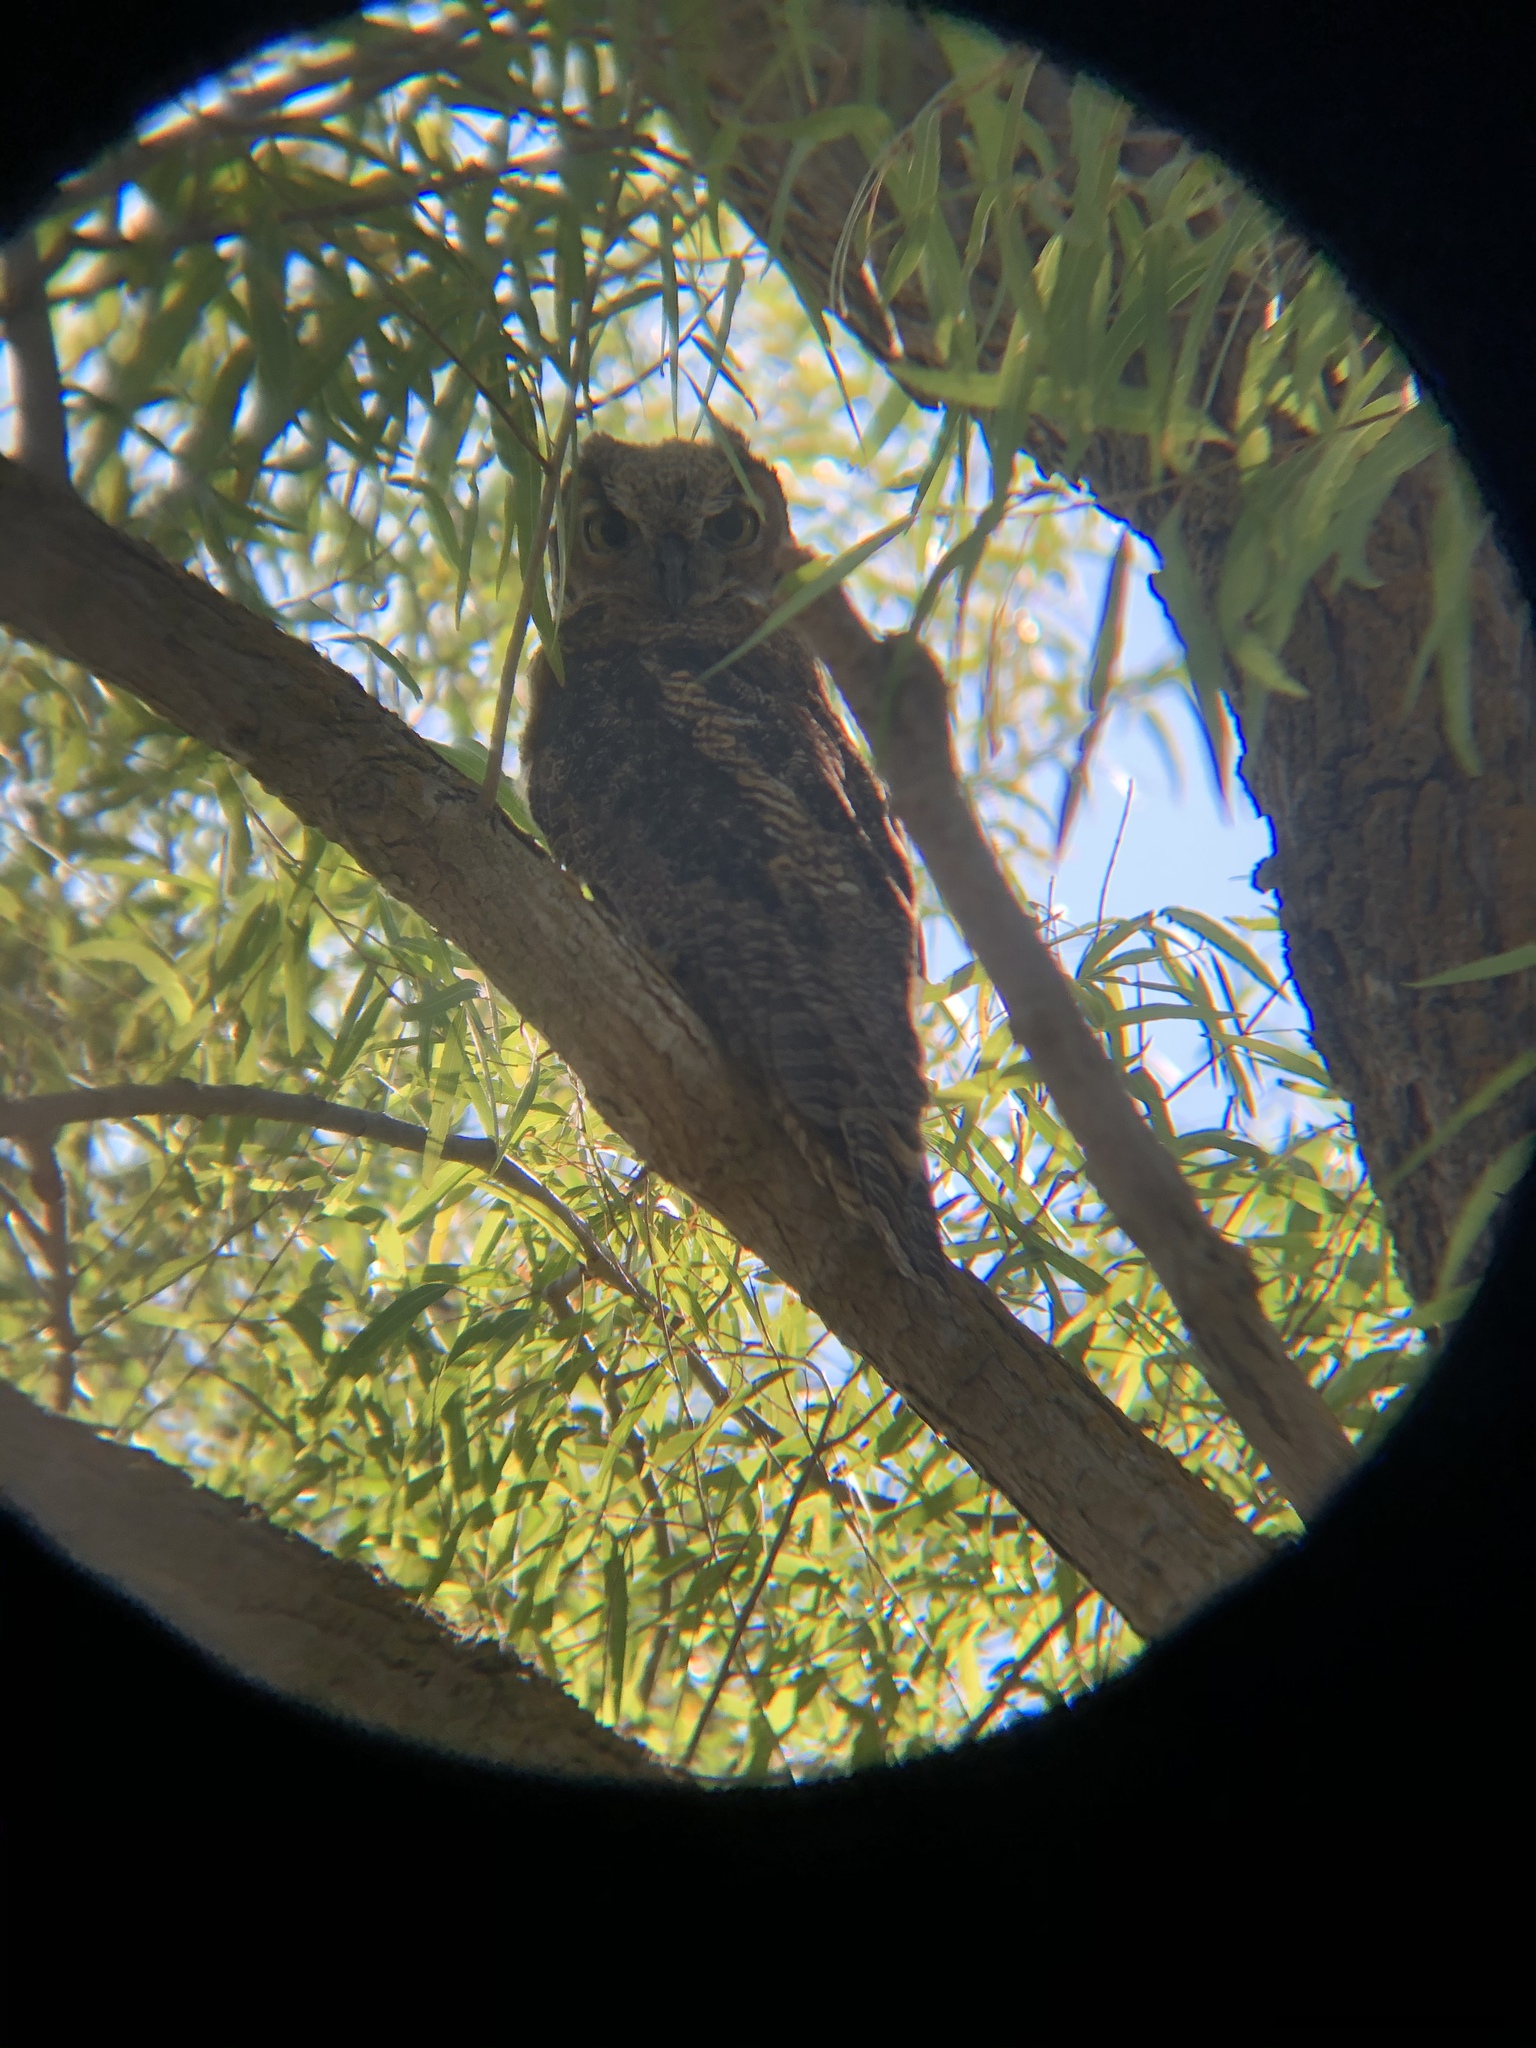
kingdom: Animalia
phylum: Chordata
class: Aves
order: Strigiformes
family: Strigidae
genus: Bubo
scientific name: Bubo virginianus
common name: Great horned owl
